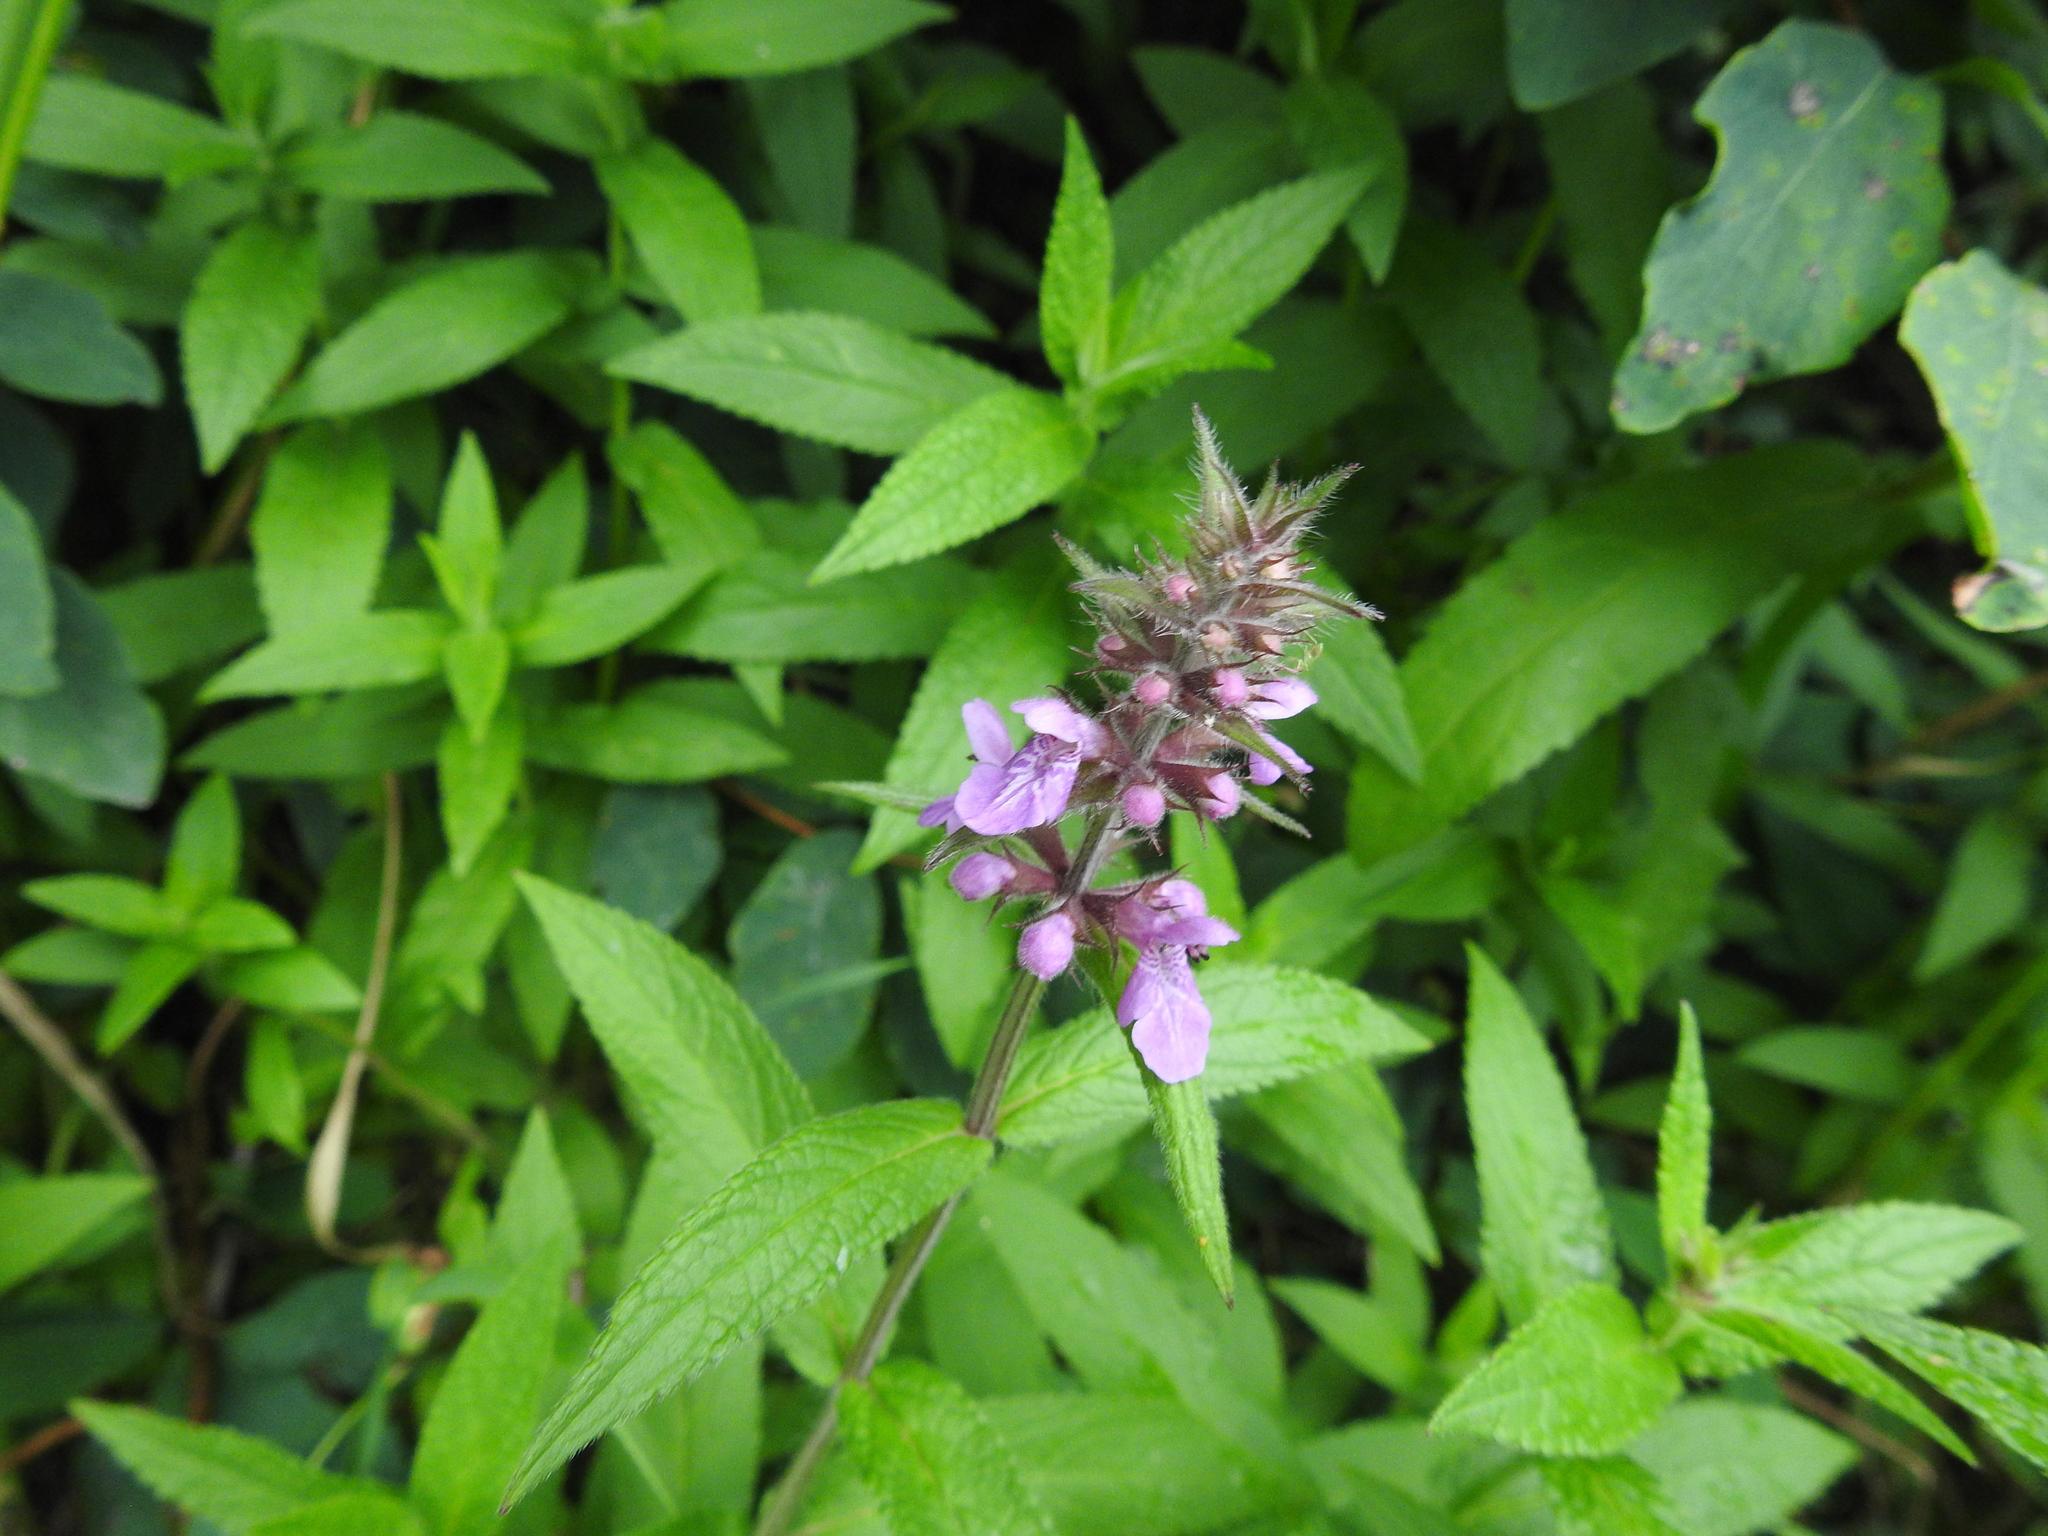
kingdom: Plantae
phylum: Tracheophyta
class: Magnoliopsida
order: Lamiales
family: Lamiaceae
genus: Stachys
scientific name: Stachys palustris
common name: Marsh woundwort
